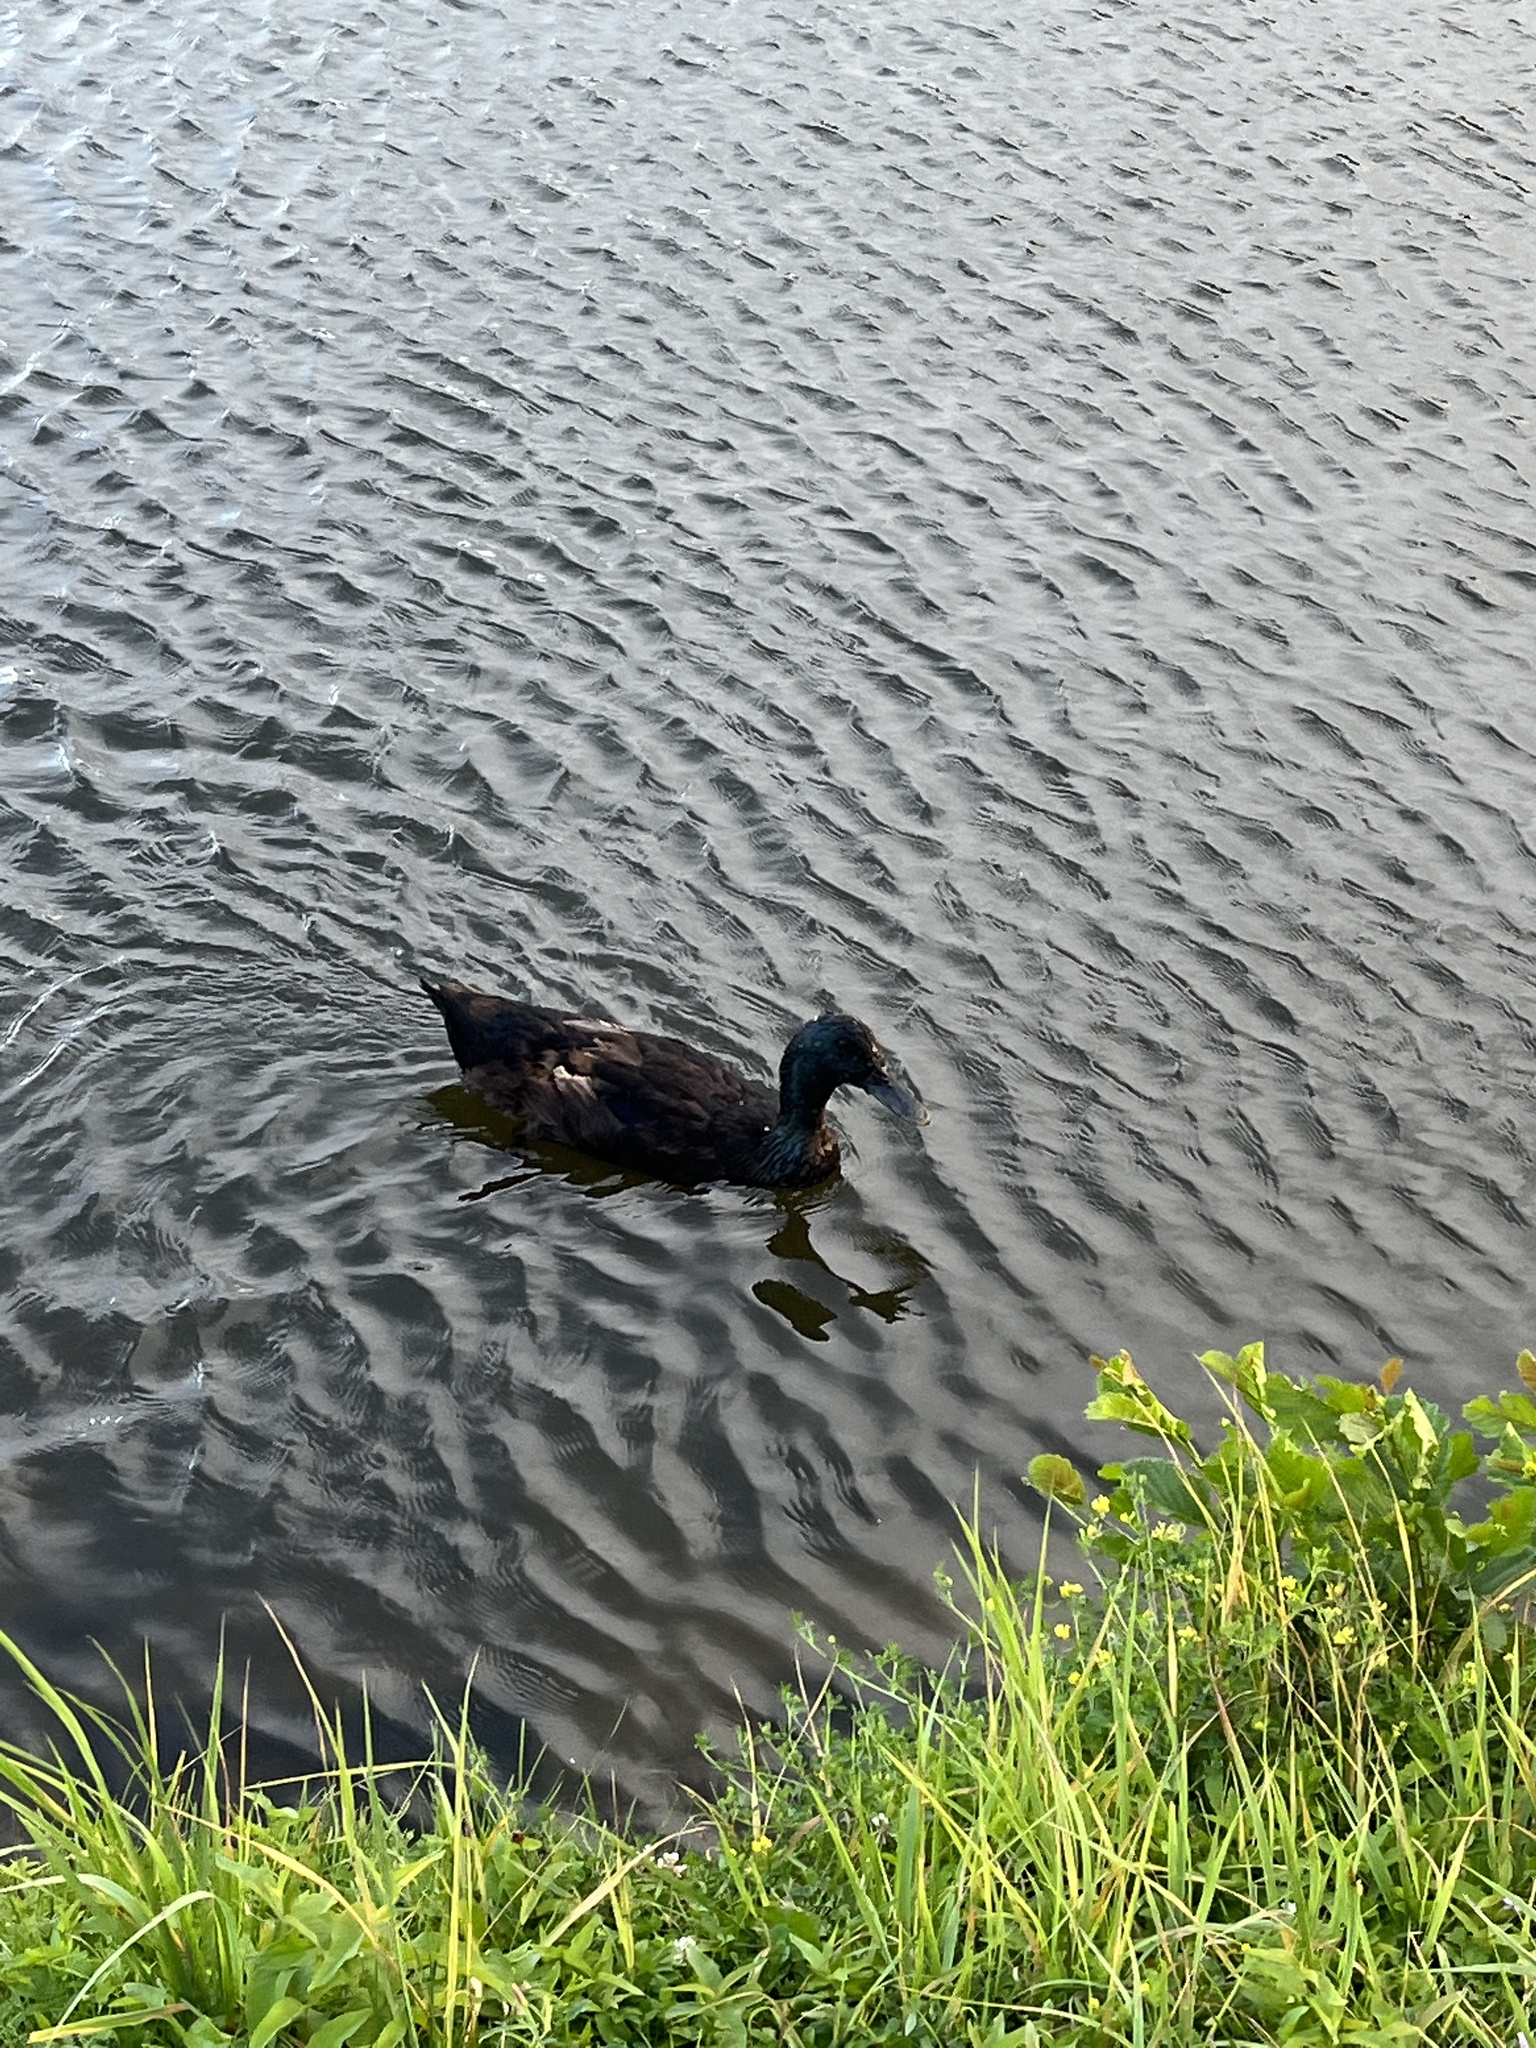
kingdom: Animalia
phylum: Chordata
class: Aves
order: Anseriformes
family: Anatidae
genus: Anas
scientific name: Anas platyrhynchos
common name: Mallard
